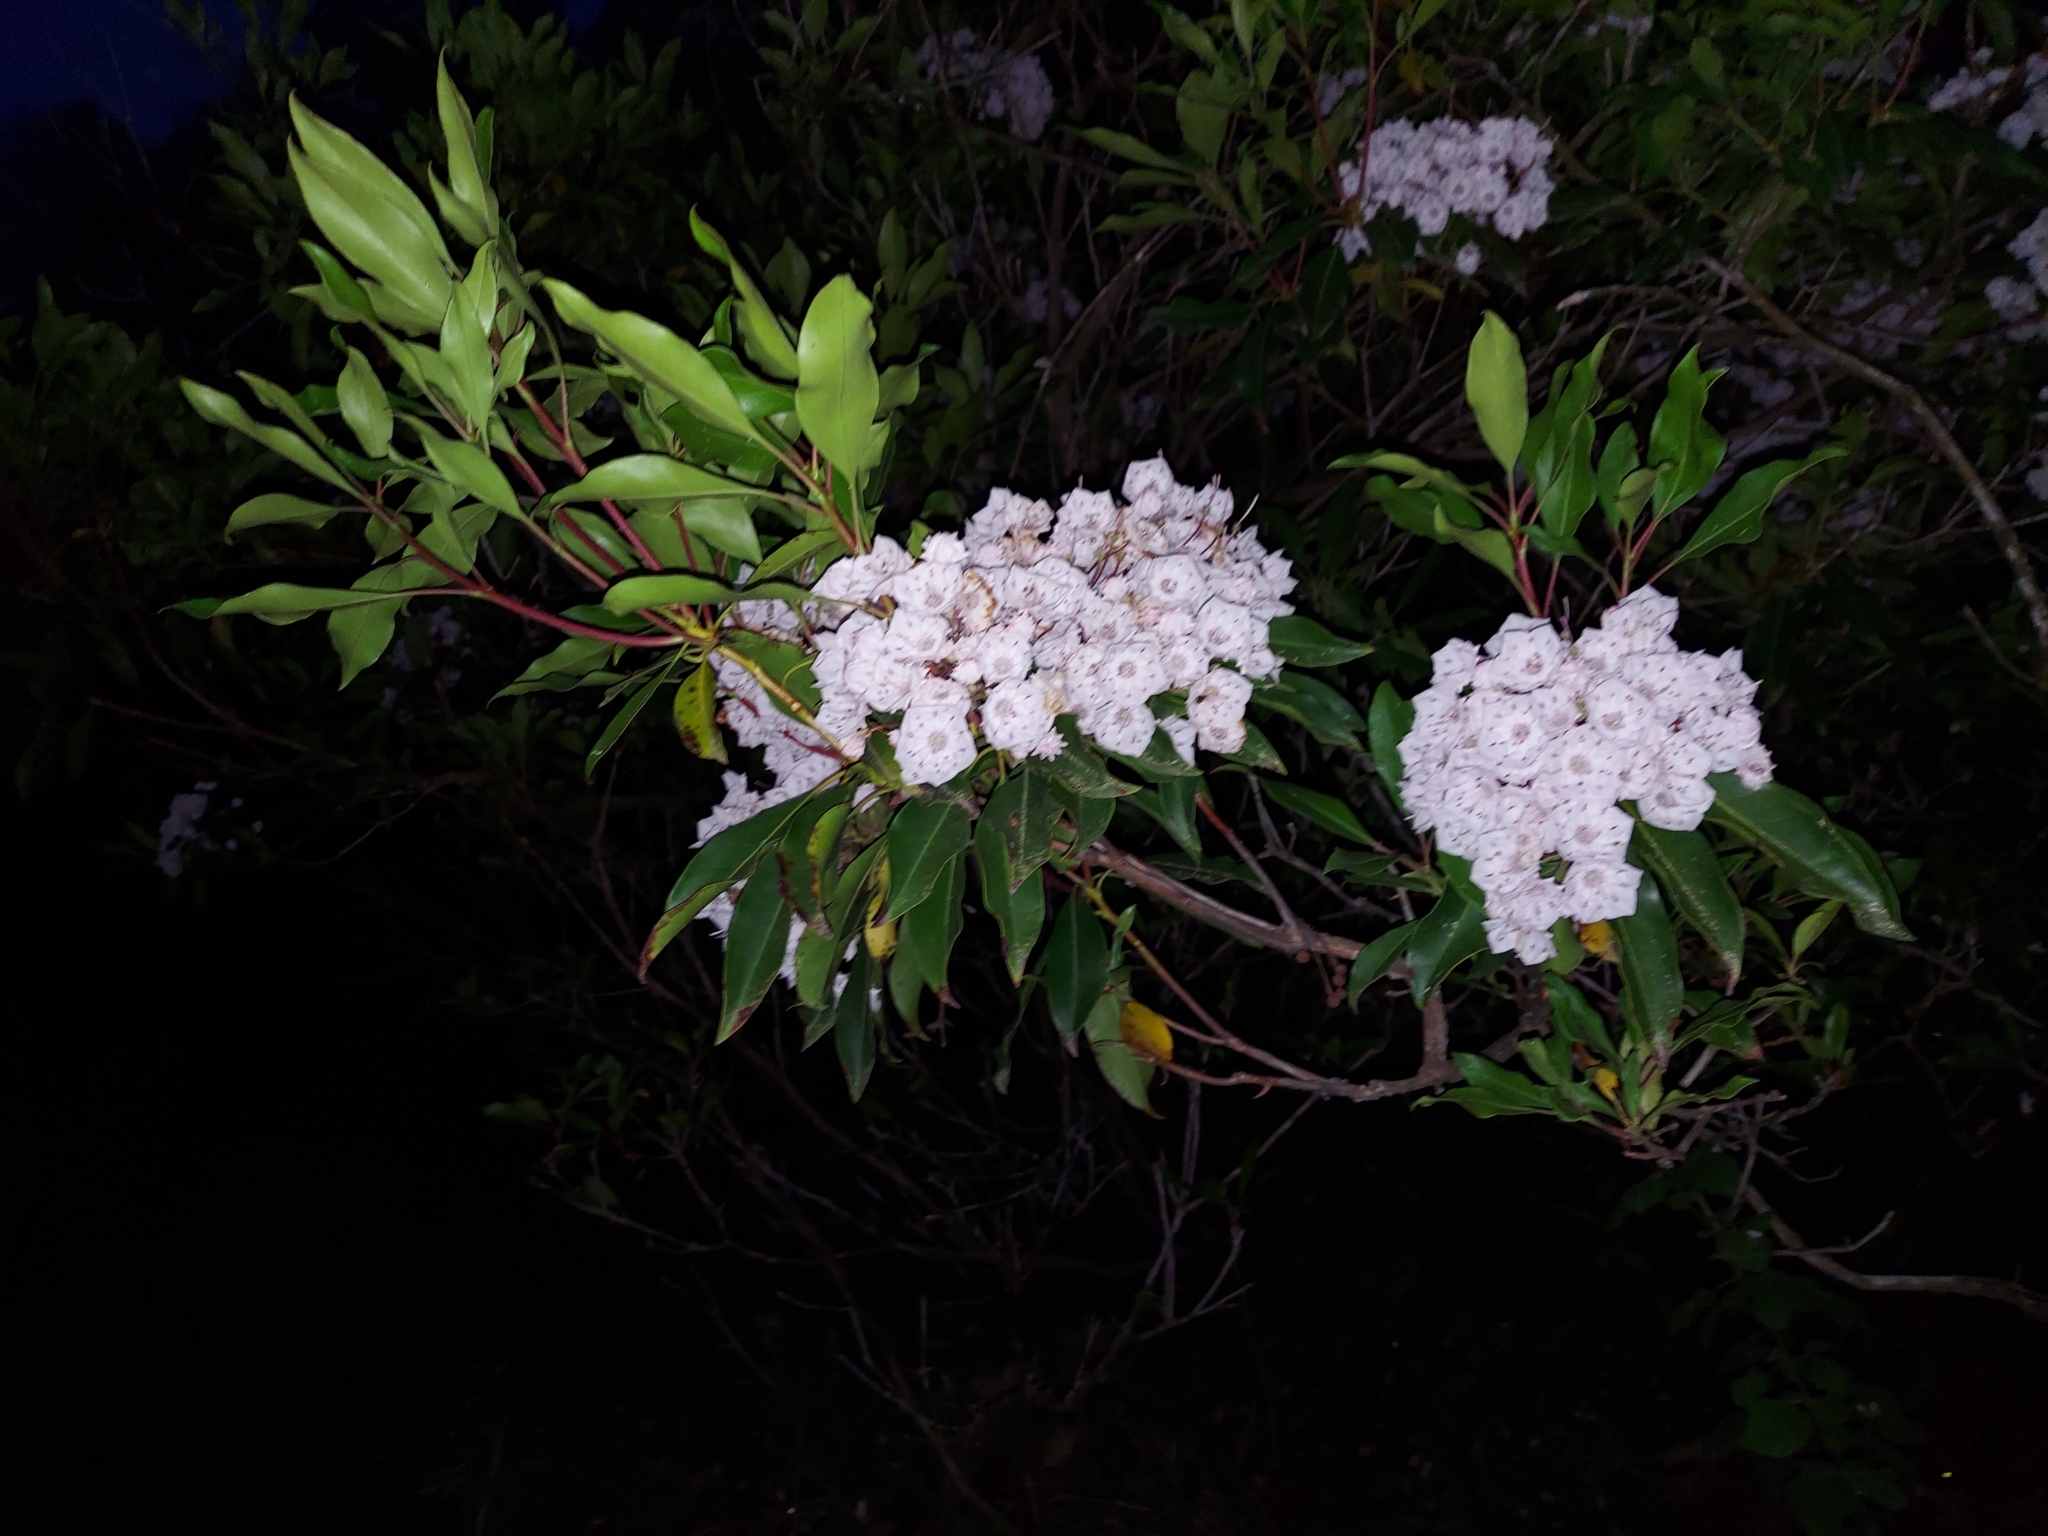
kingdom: Plantae
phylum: Tracheophyta
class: Magnoliopsida
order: Ericales
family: Ericaceae
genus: Kalmia
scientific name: Kalmia latifolia
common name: Mountain-laurel
